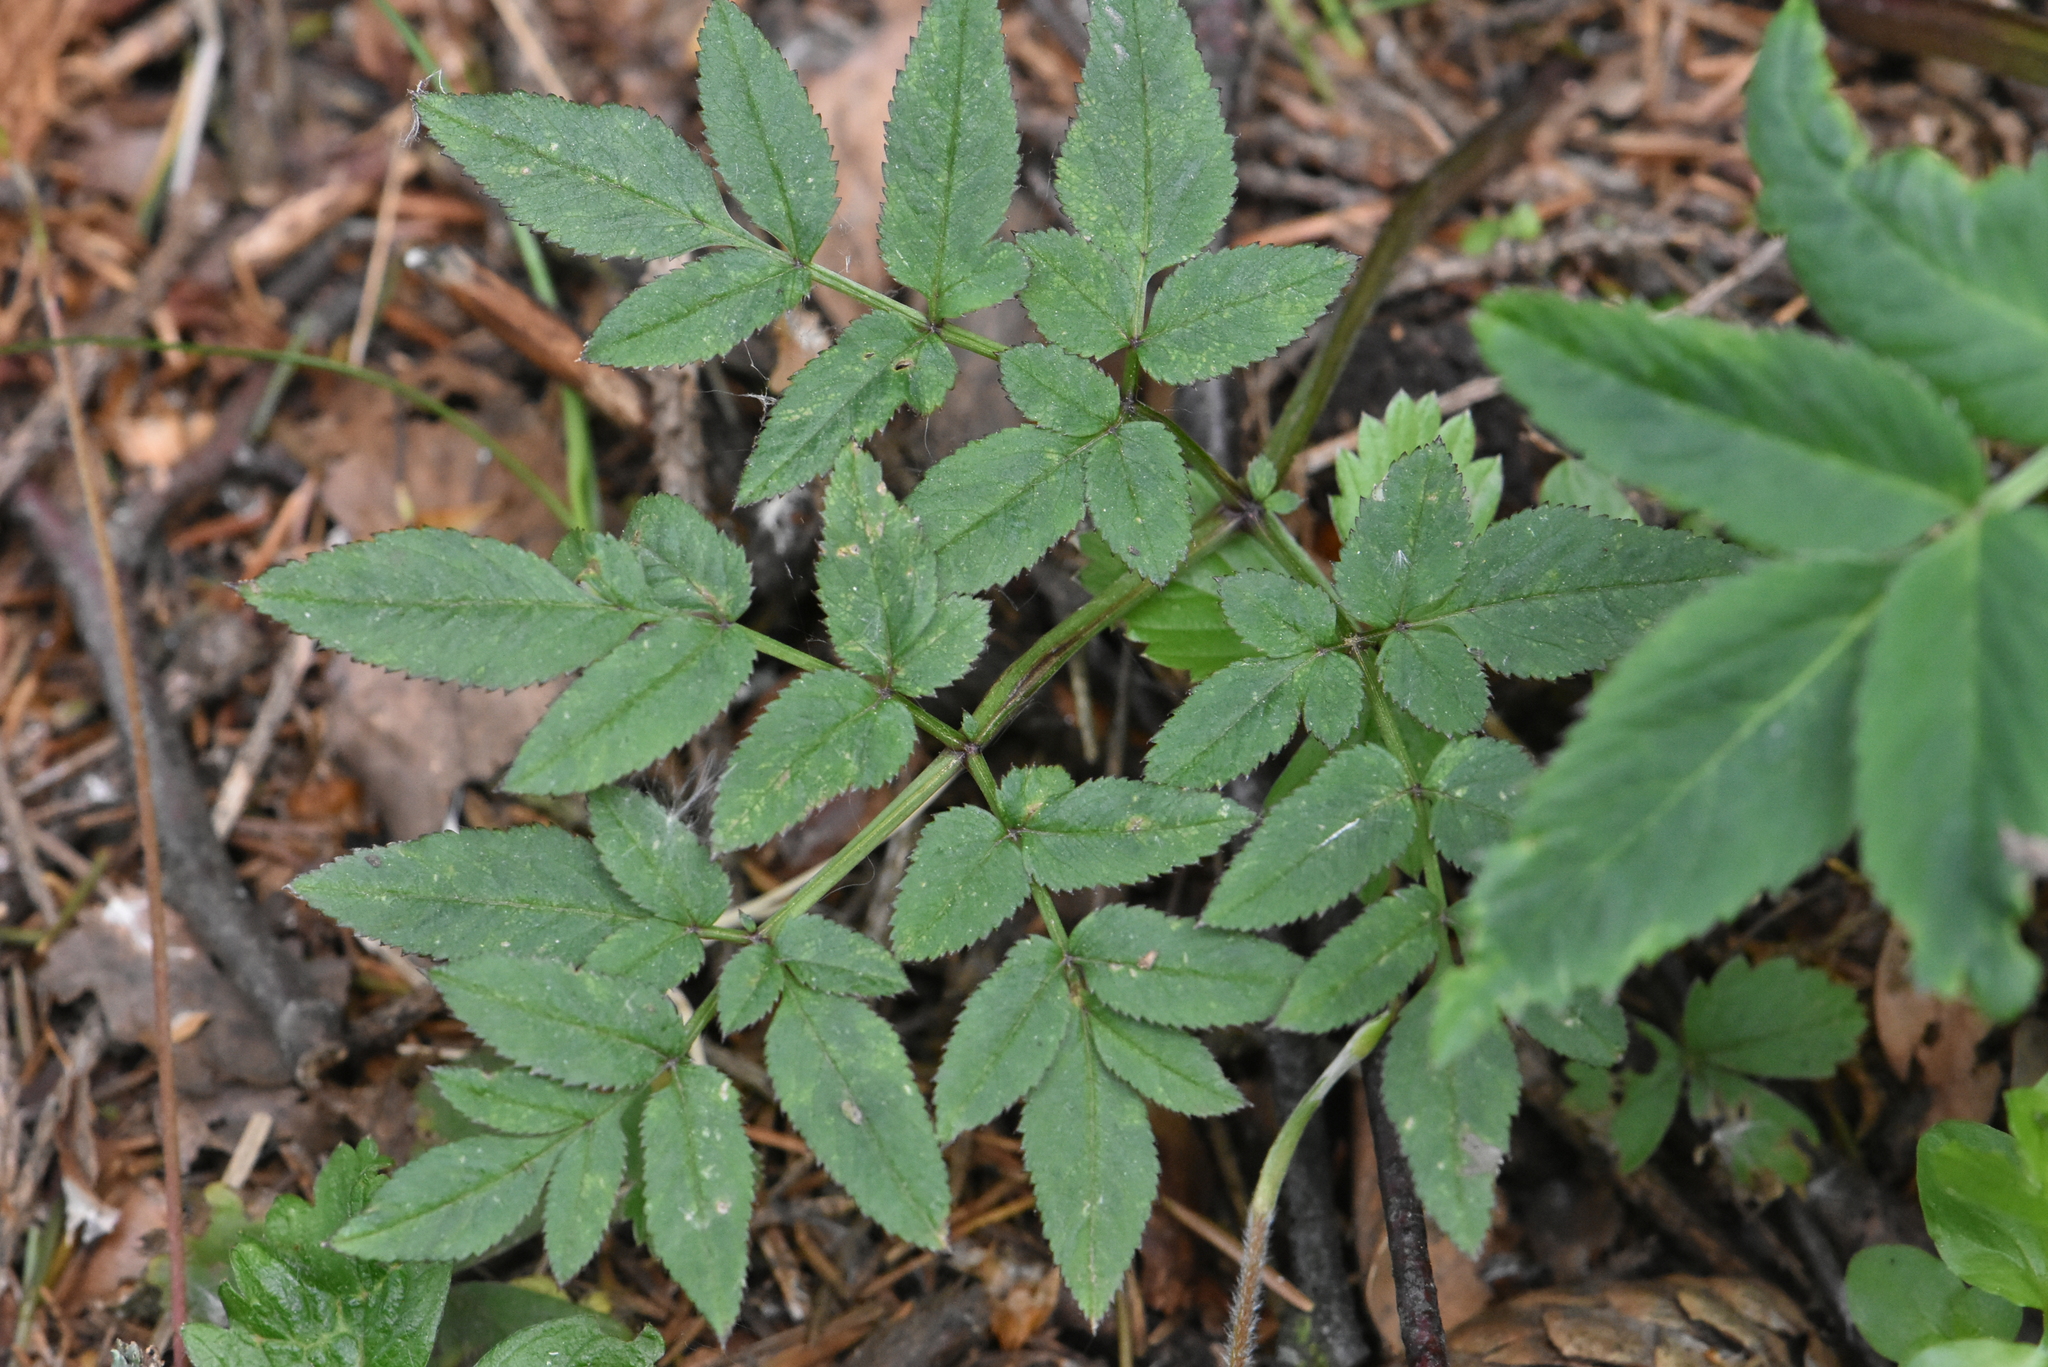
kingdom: Plantae
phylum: Tracheophyta
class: Magnoliopsida
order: Apiales
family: Apiaceae
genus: Angelica
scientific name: Angelica sylvestris
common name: Wild angelica
